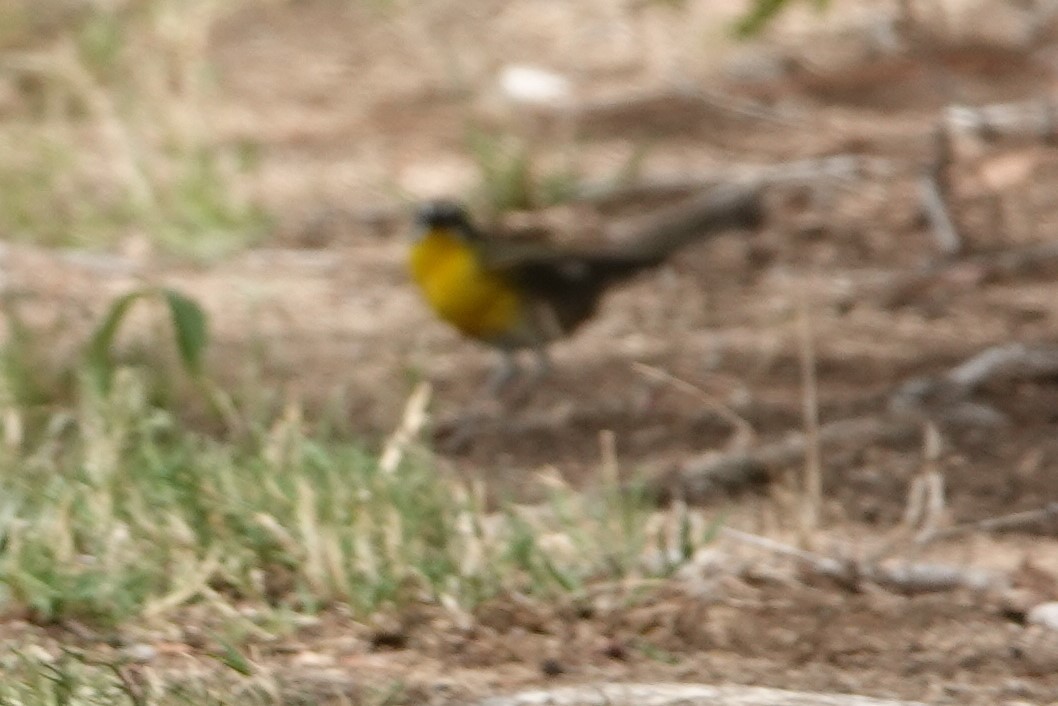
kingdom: Animalia
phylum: Chordata
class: Aves
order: Passeriformes
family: Parulidae
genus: Icteria
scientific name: Icteria virens
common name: Yellow-breasted chat
